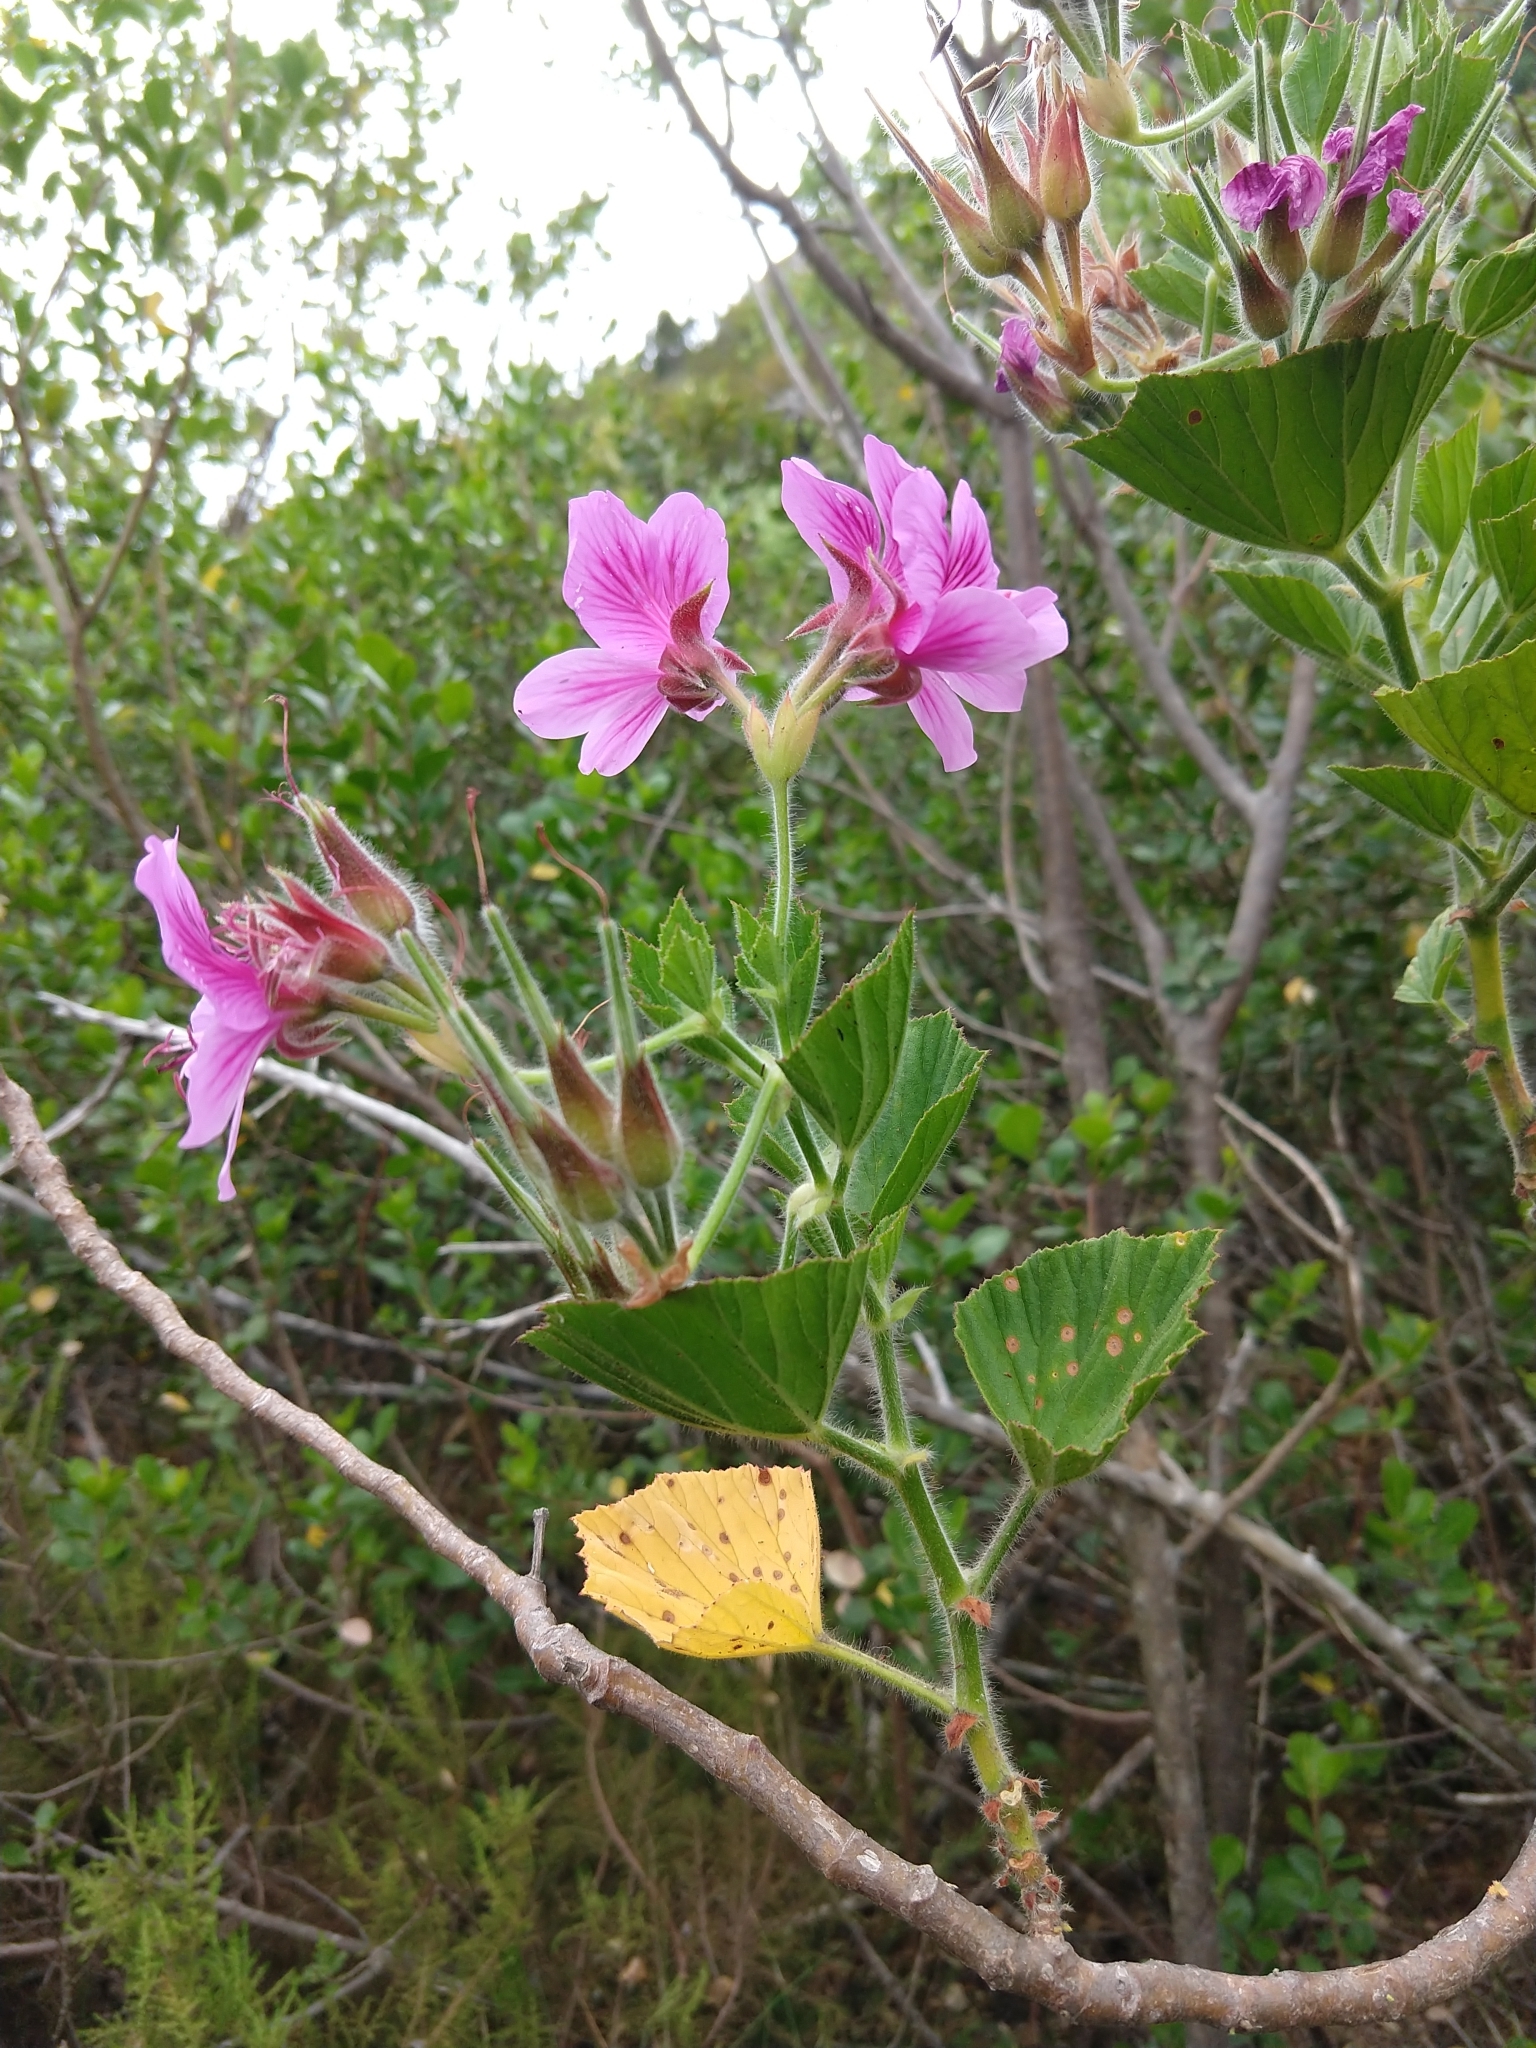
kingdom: Plantae
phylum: Tracheophyta
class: Magnoliopsida
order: Geraniales
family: Geraniaceae
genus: Pelargonium
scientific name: Pelargonium cucullatum
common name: Tree pelargonium
